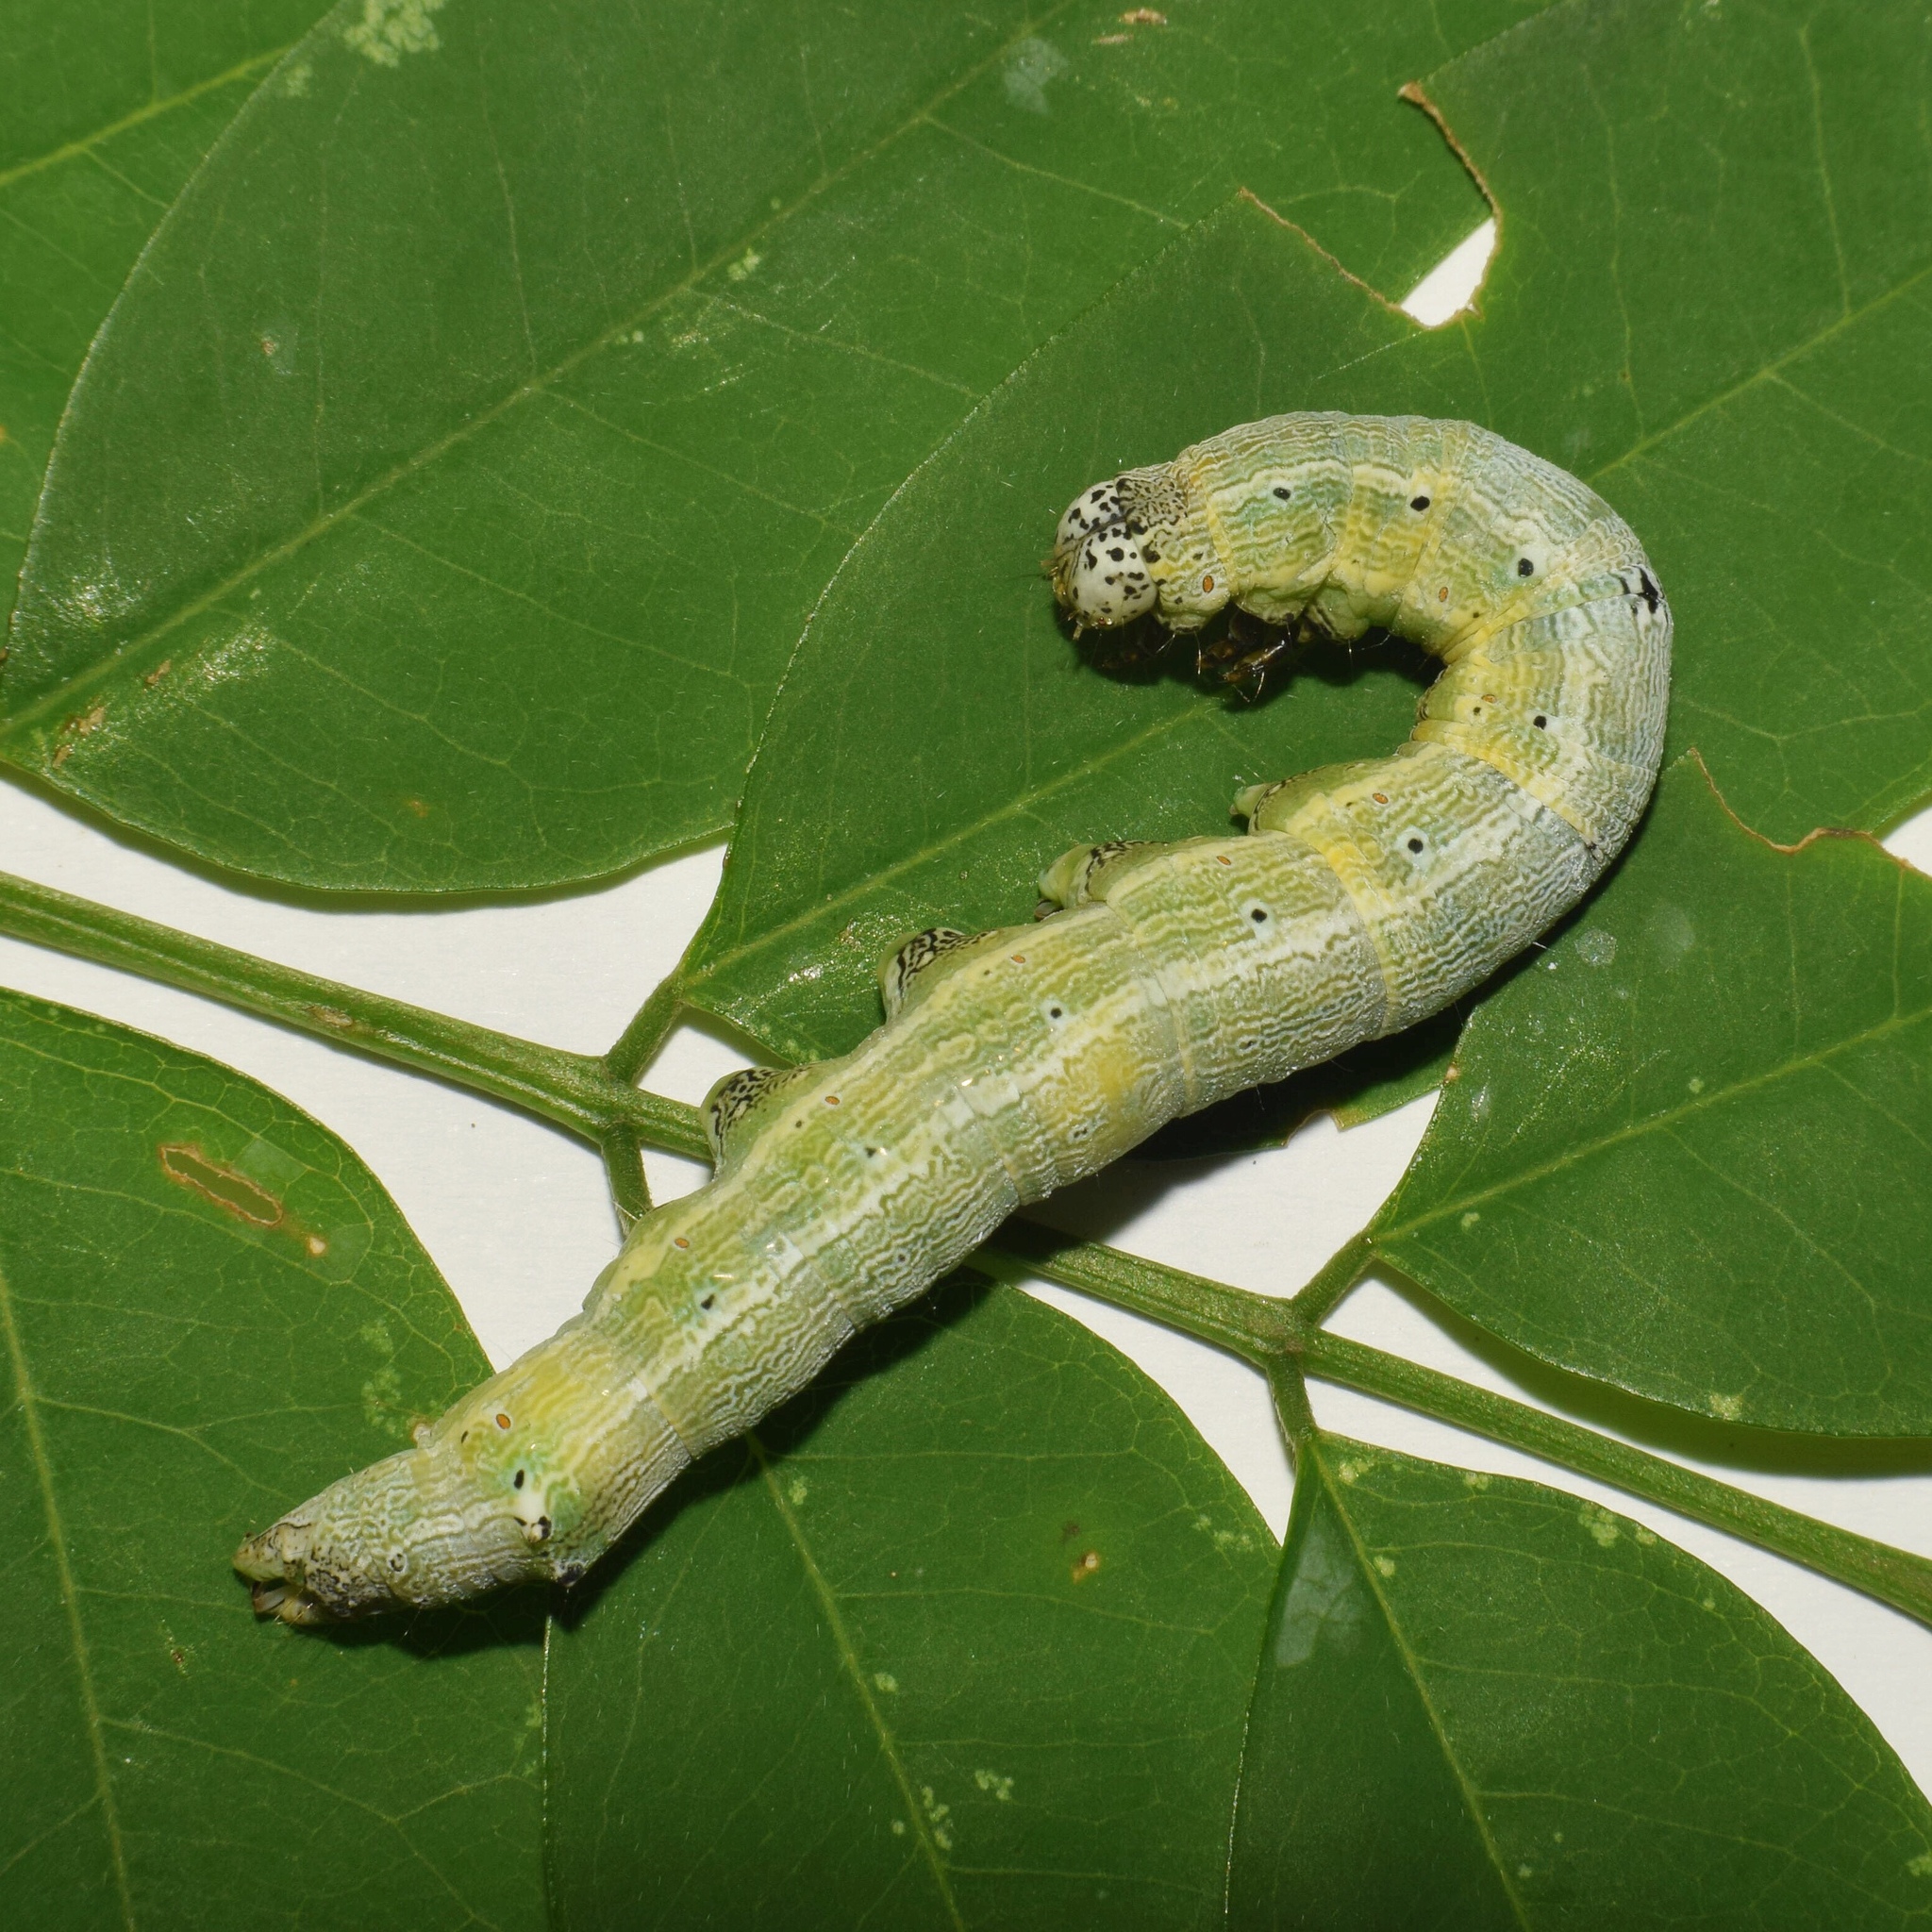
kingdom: Animalia
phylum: Arthropoda
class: Insecta
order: Lepidoptera
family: Erebidae
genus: Achaea
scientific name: Achaea indeterminata
